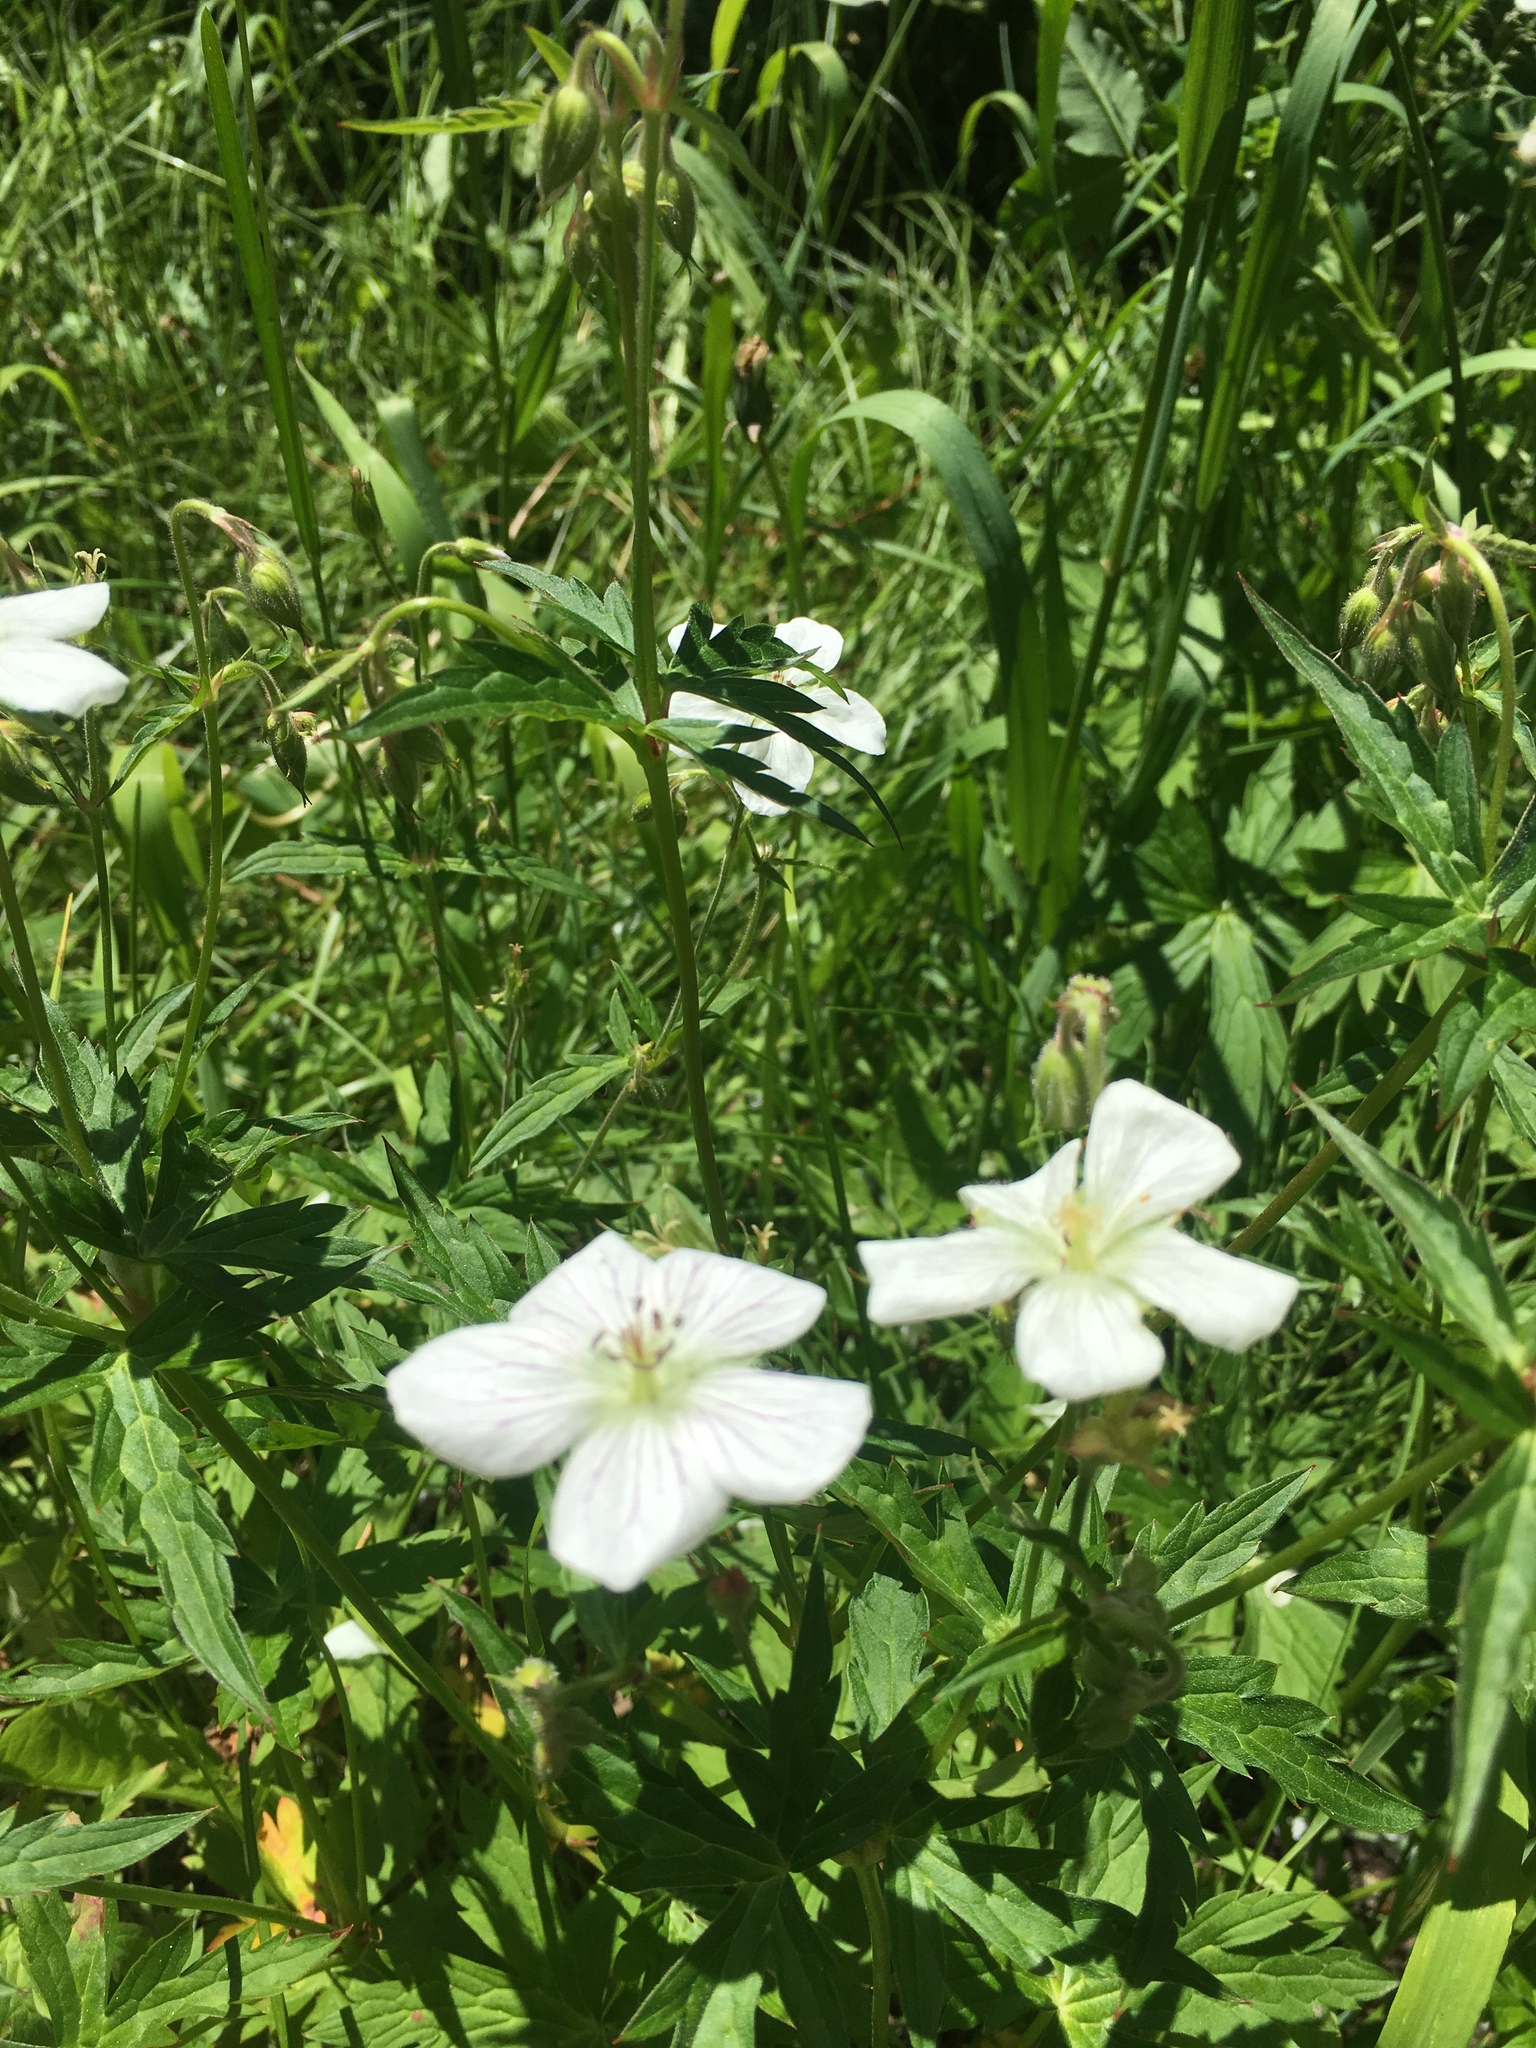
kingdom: Plantae
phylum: Tracheophyta
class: Magnoliopsida
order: Geraniales
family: Geraniaceae
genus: Geranium
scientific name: Geranium richardsonii
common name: Richardson's crane's-bill
